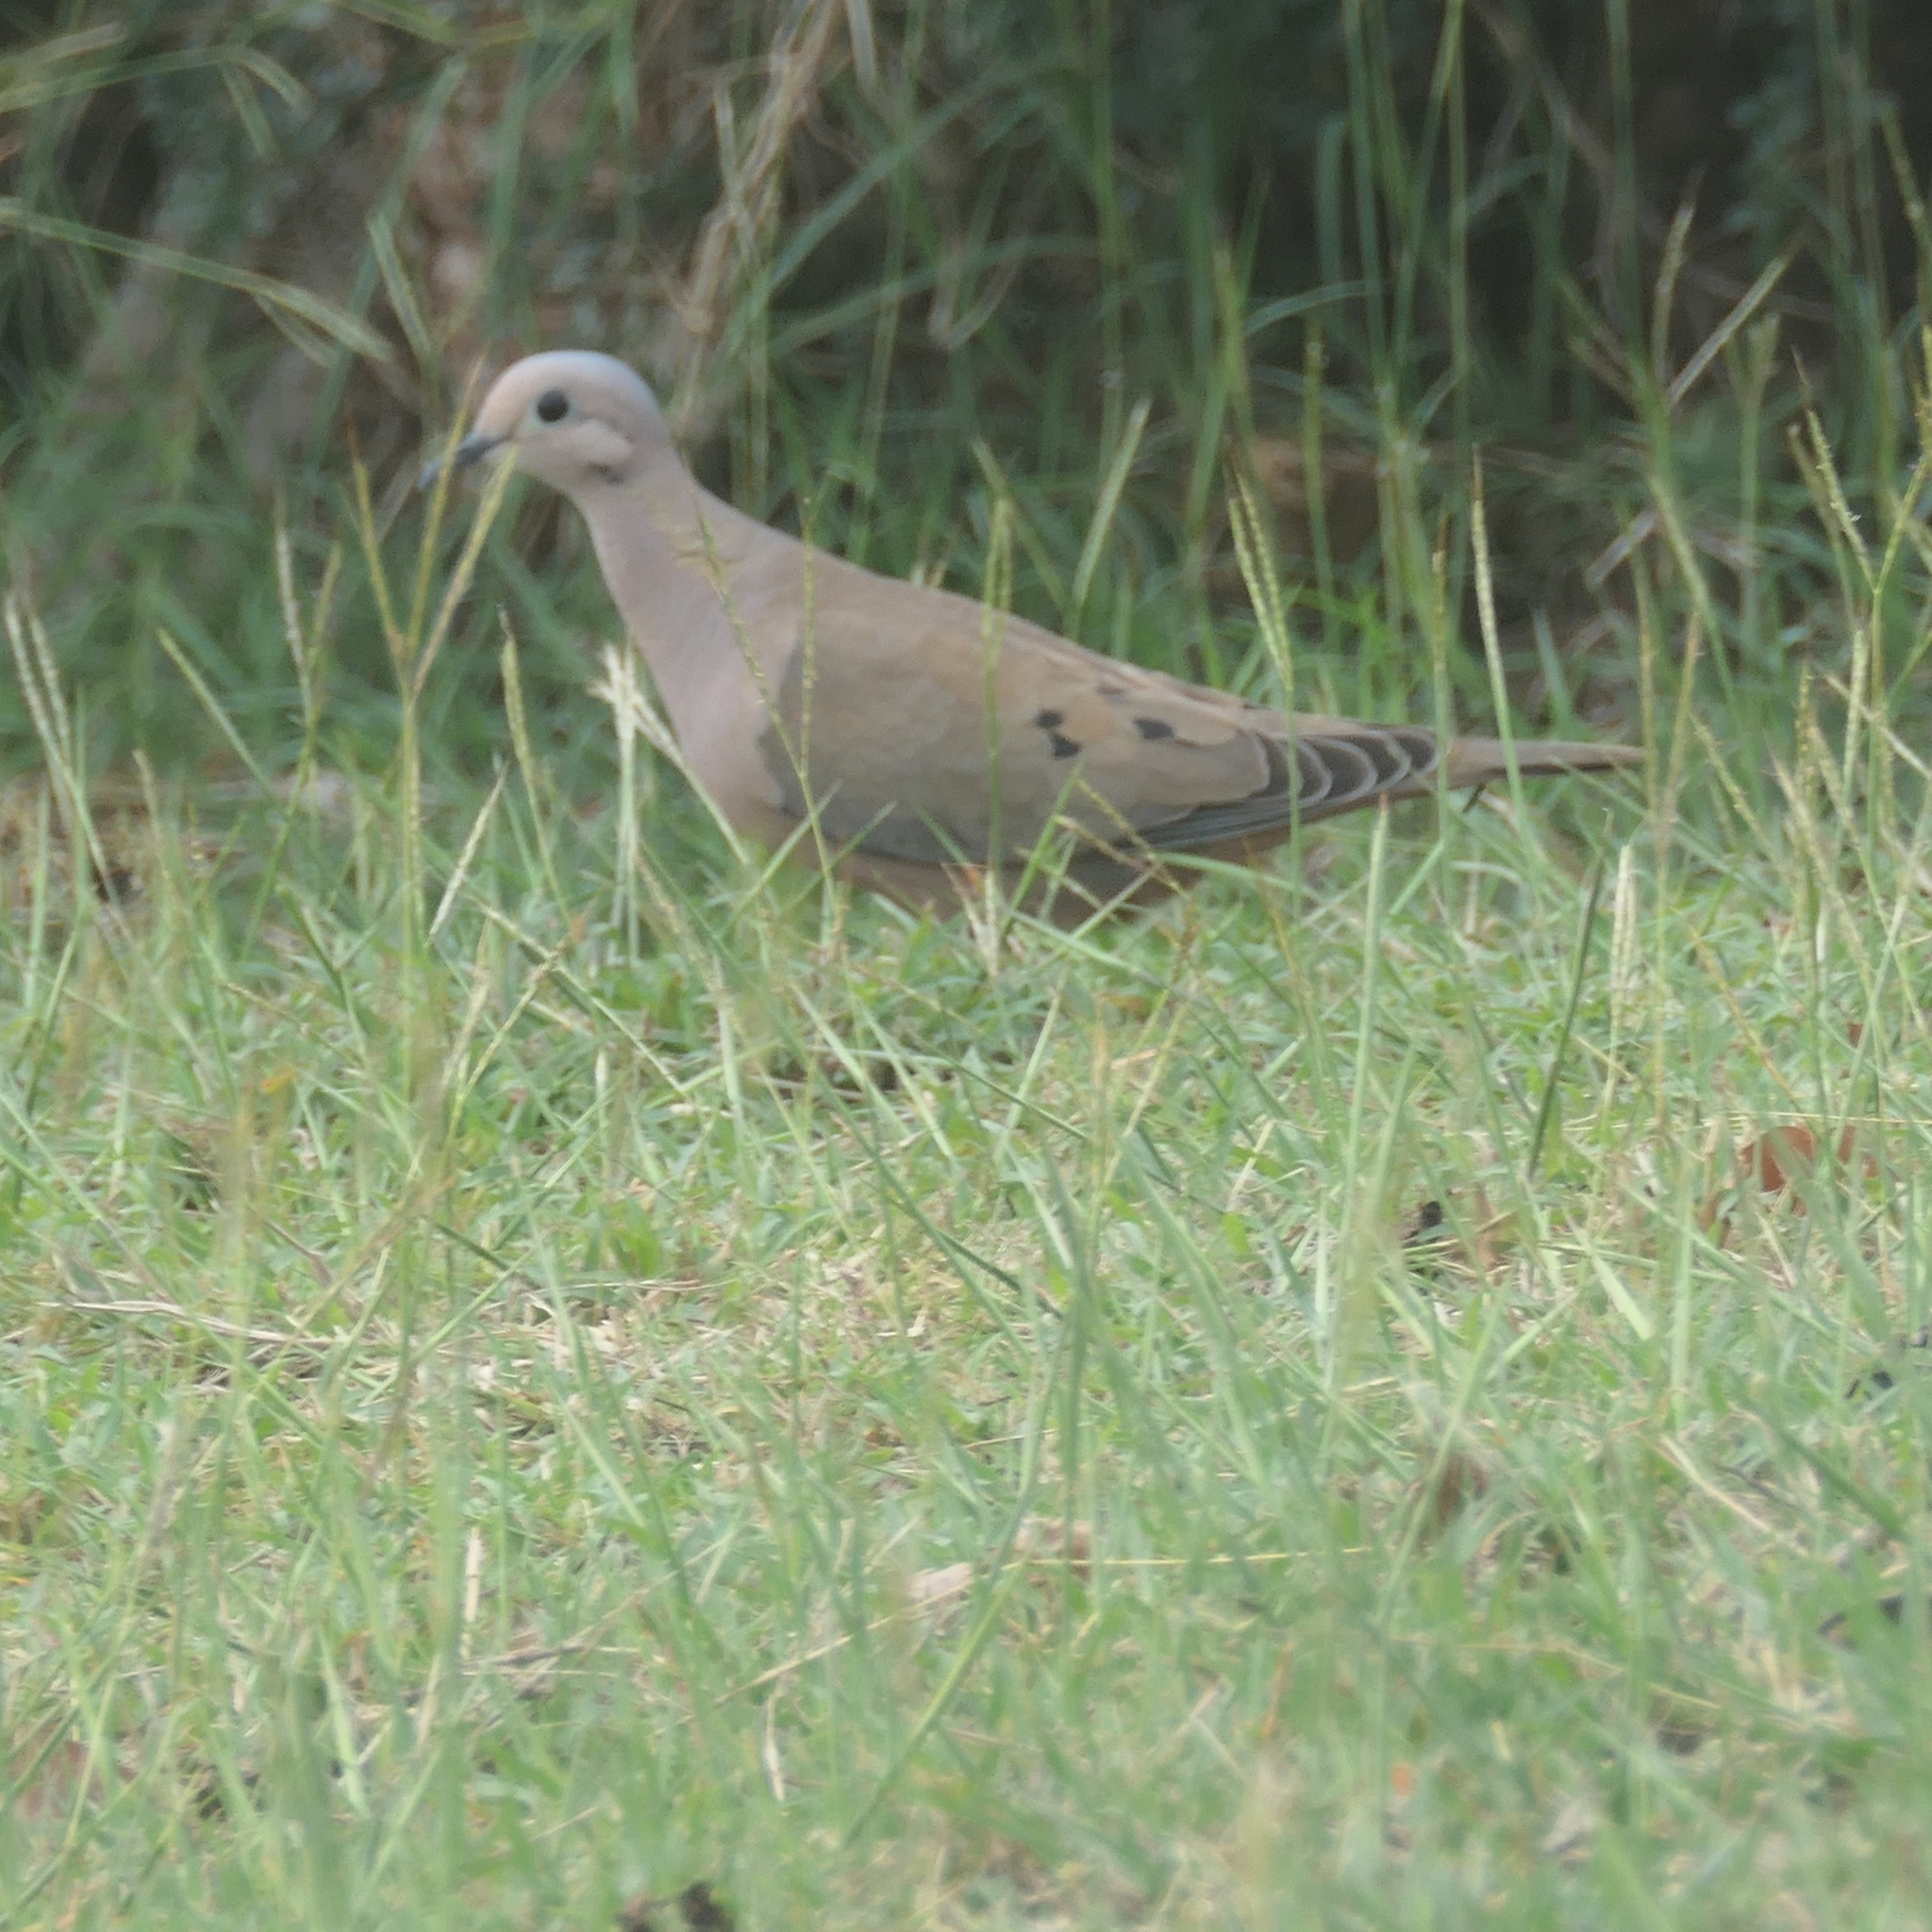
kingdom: Animalia
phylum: Chordata
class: Aves
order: Columbiformes
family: Columbidae
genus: Zenaida
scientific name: Zenaida auriculata
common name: Eared dove
